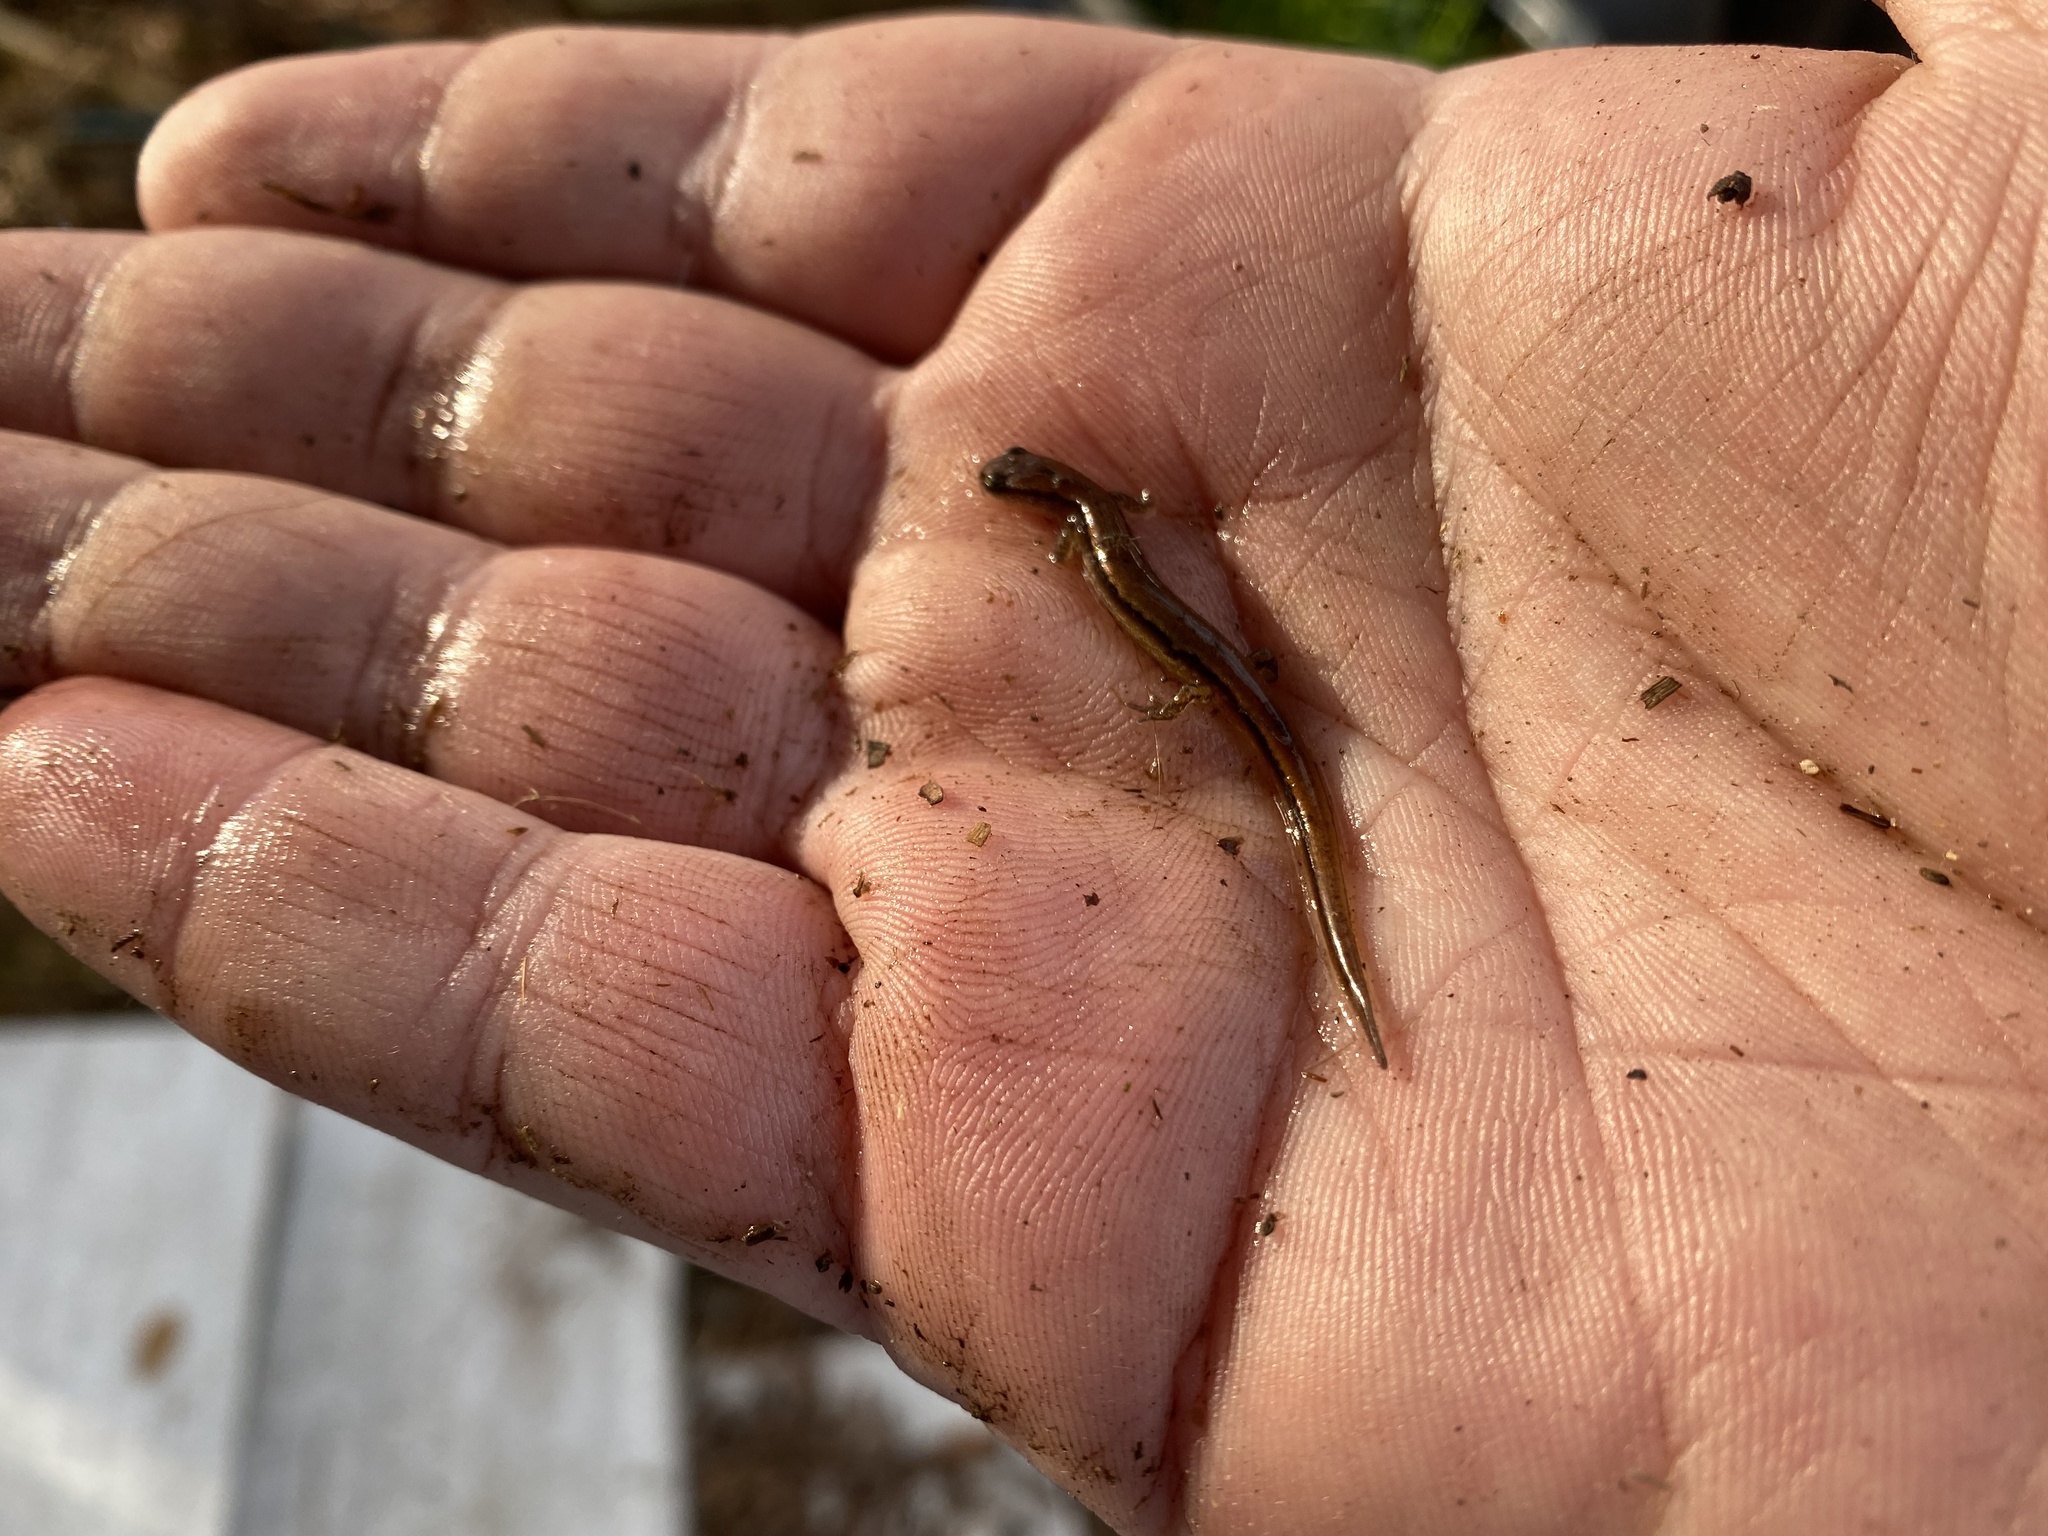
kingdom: Animalia
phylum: Chordata
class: Amphibia
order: Caudata
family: Plethodontidae
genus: Eurycea
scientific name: Eurycea chamberlaini
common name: Chamberlain's dwarf salamander
